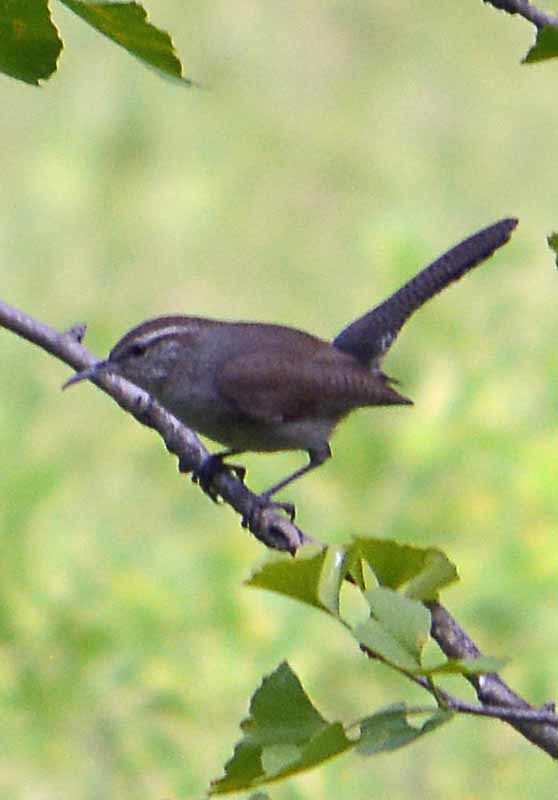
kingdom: Animalia
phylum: Chordata
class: Aves
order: Passeriformes
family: Troglodytidae
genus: Thryomanes
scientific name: Thryomanes bewickii
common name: Bewick's wren
